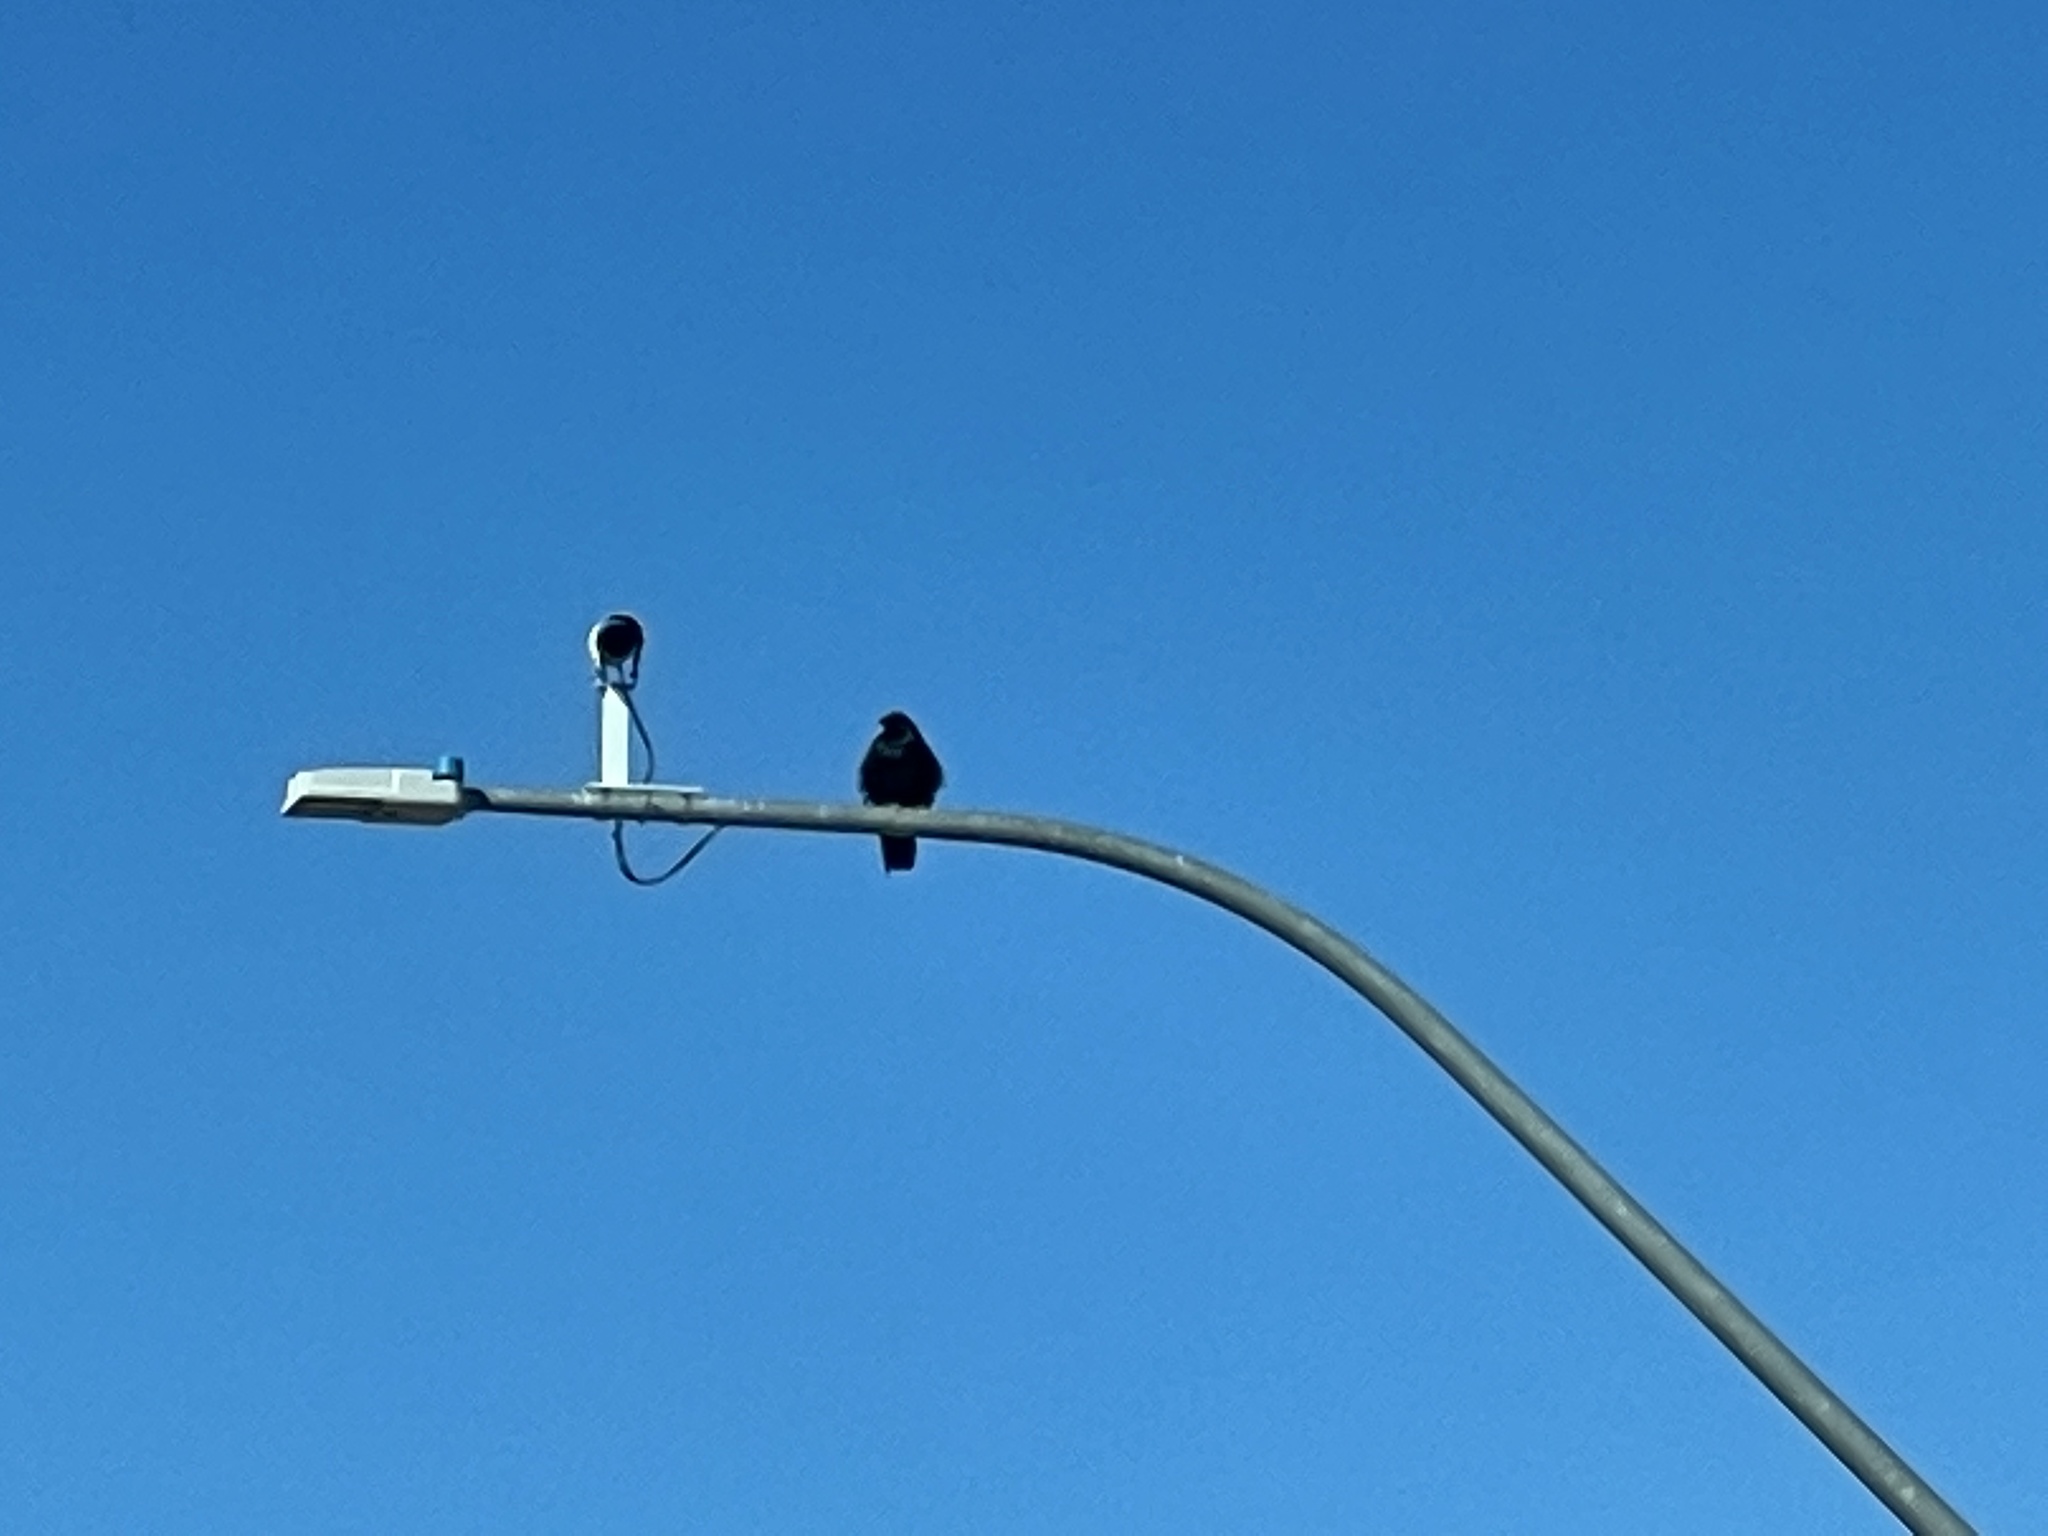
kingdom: Animalia
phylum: Chordata
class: Aves
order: Passeriformes
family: Corvidae
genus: Corvus
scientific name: Corvus brachyrhynchos
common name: American crow
